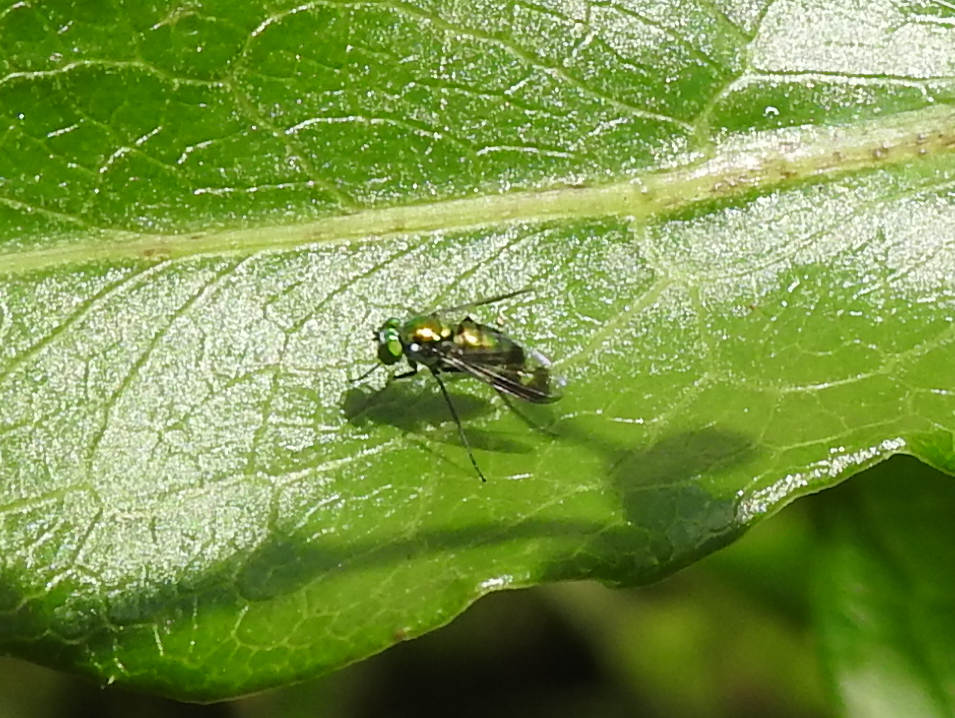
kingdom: Animalia
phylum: Arthropoda
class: Insecta
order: Diptera
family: Dolichopodidae
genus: Condylostylus
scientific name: Condylostylus patibulatus
